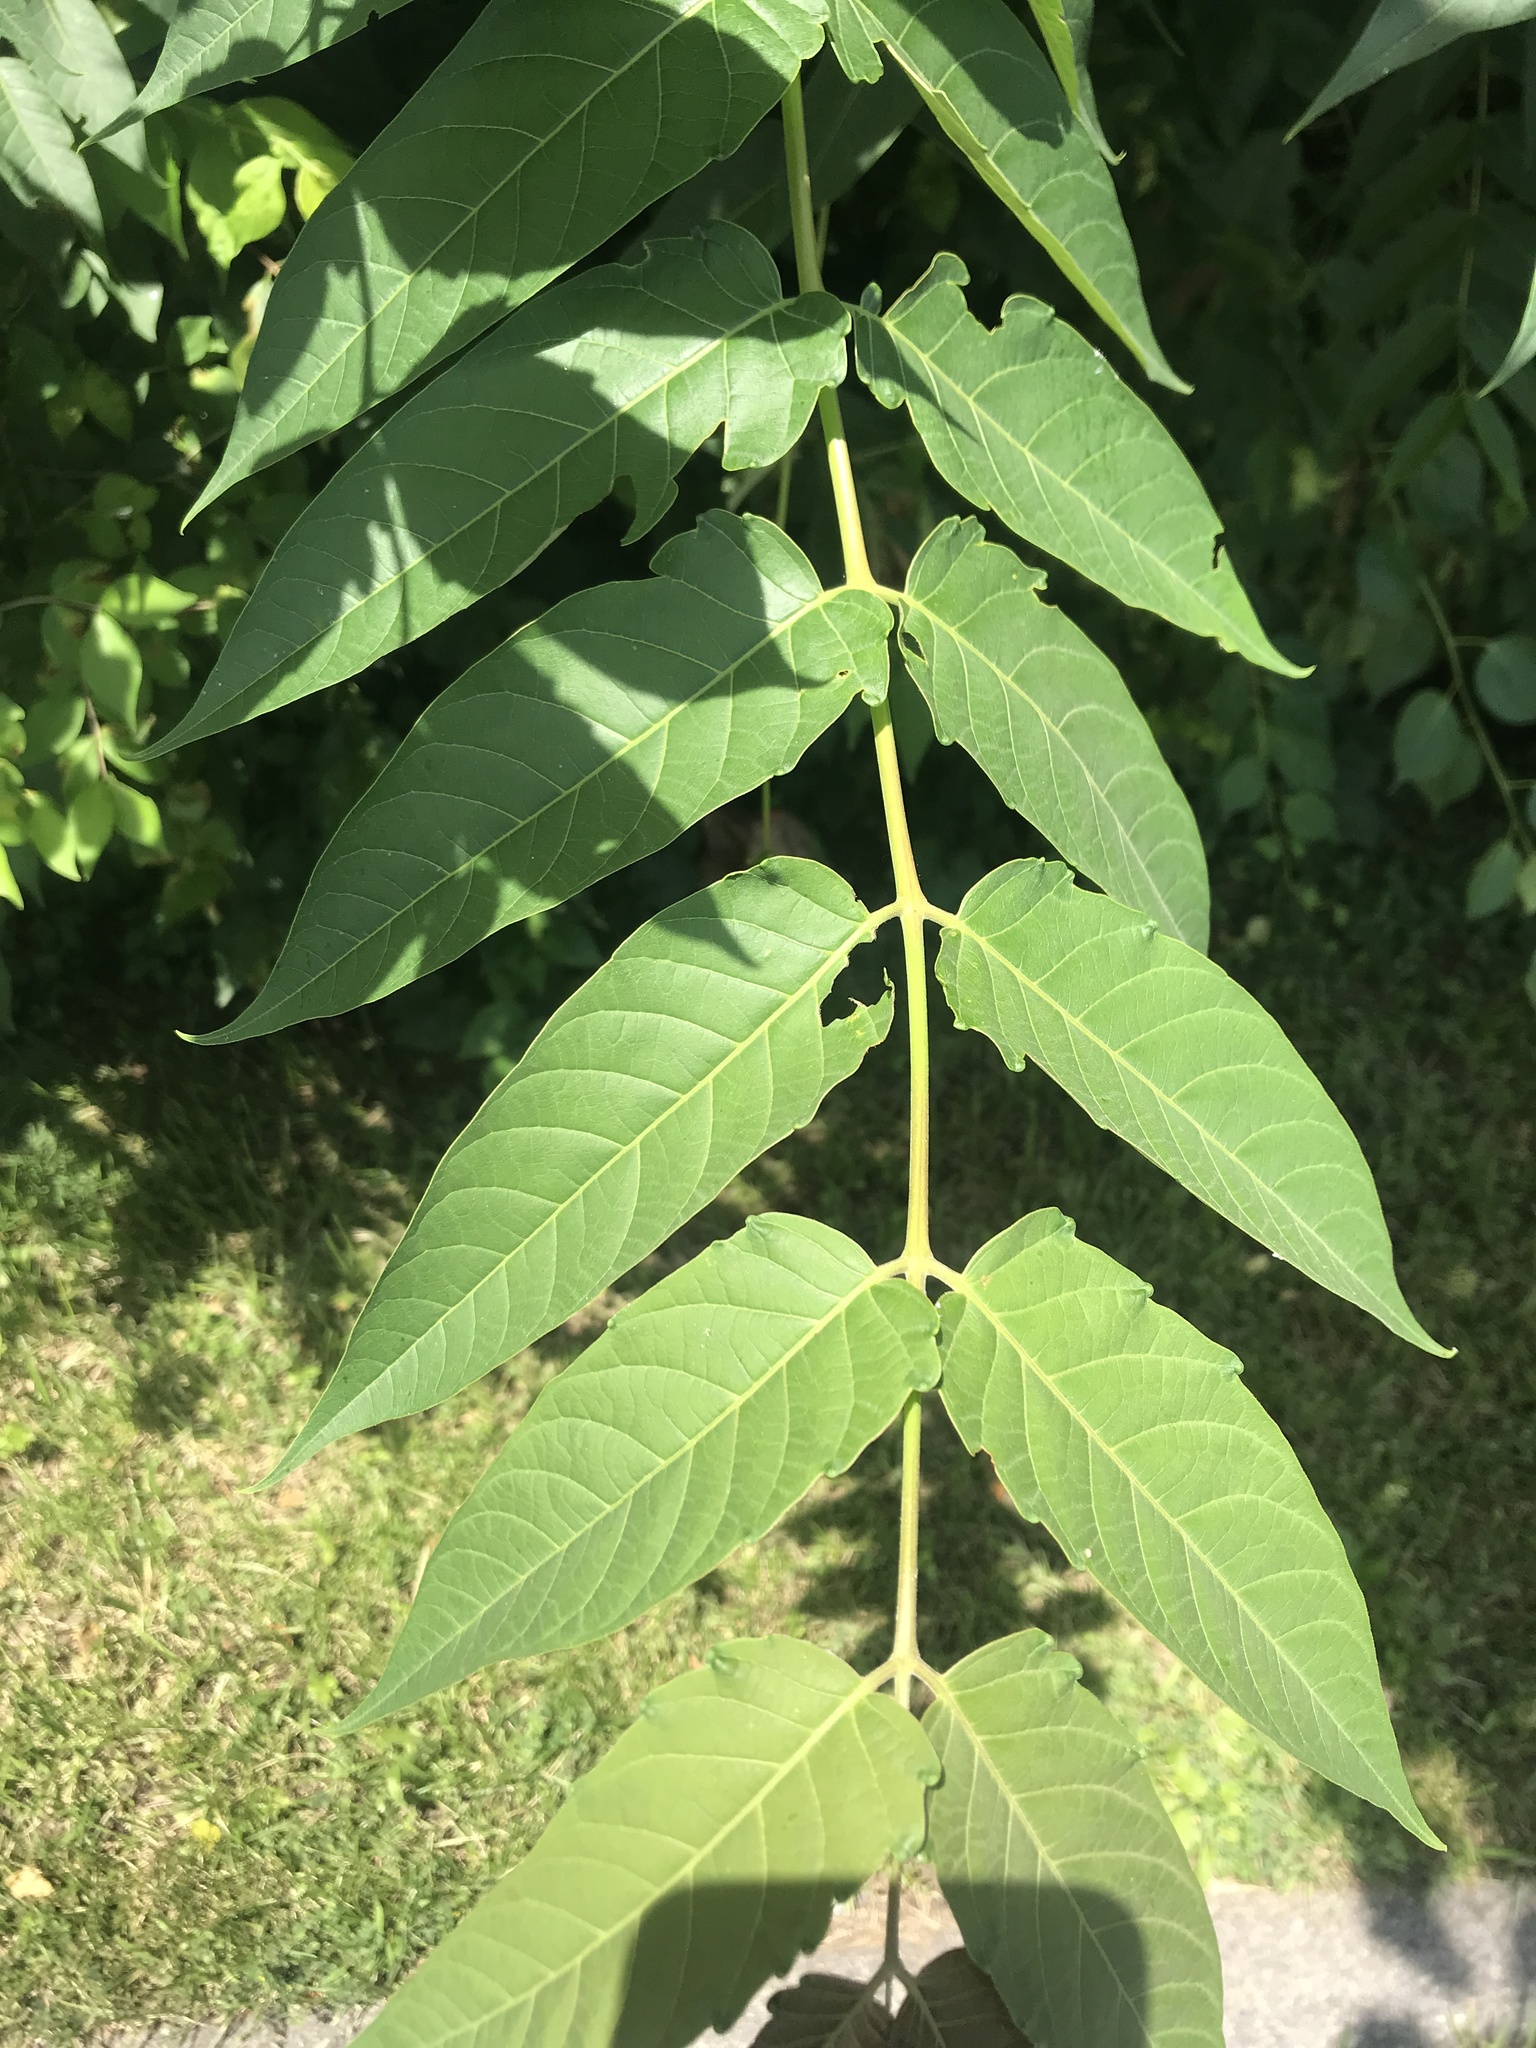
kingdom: Plantae
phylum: Tracheophyta
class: Magnoliopsida
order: Sapindales
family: Simaroubaceae
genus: Ailanthus
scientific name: Ailanthus altissima
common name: Tree-of-heaven
